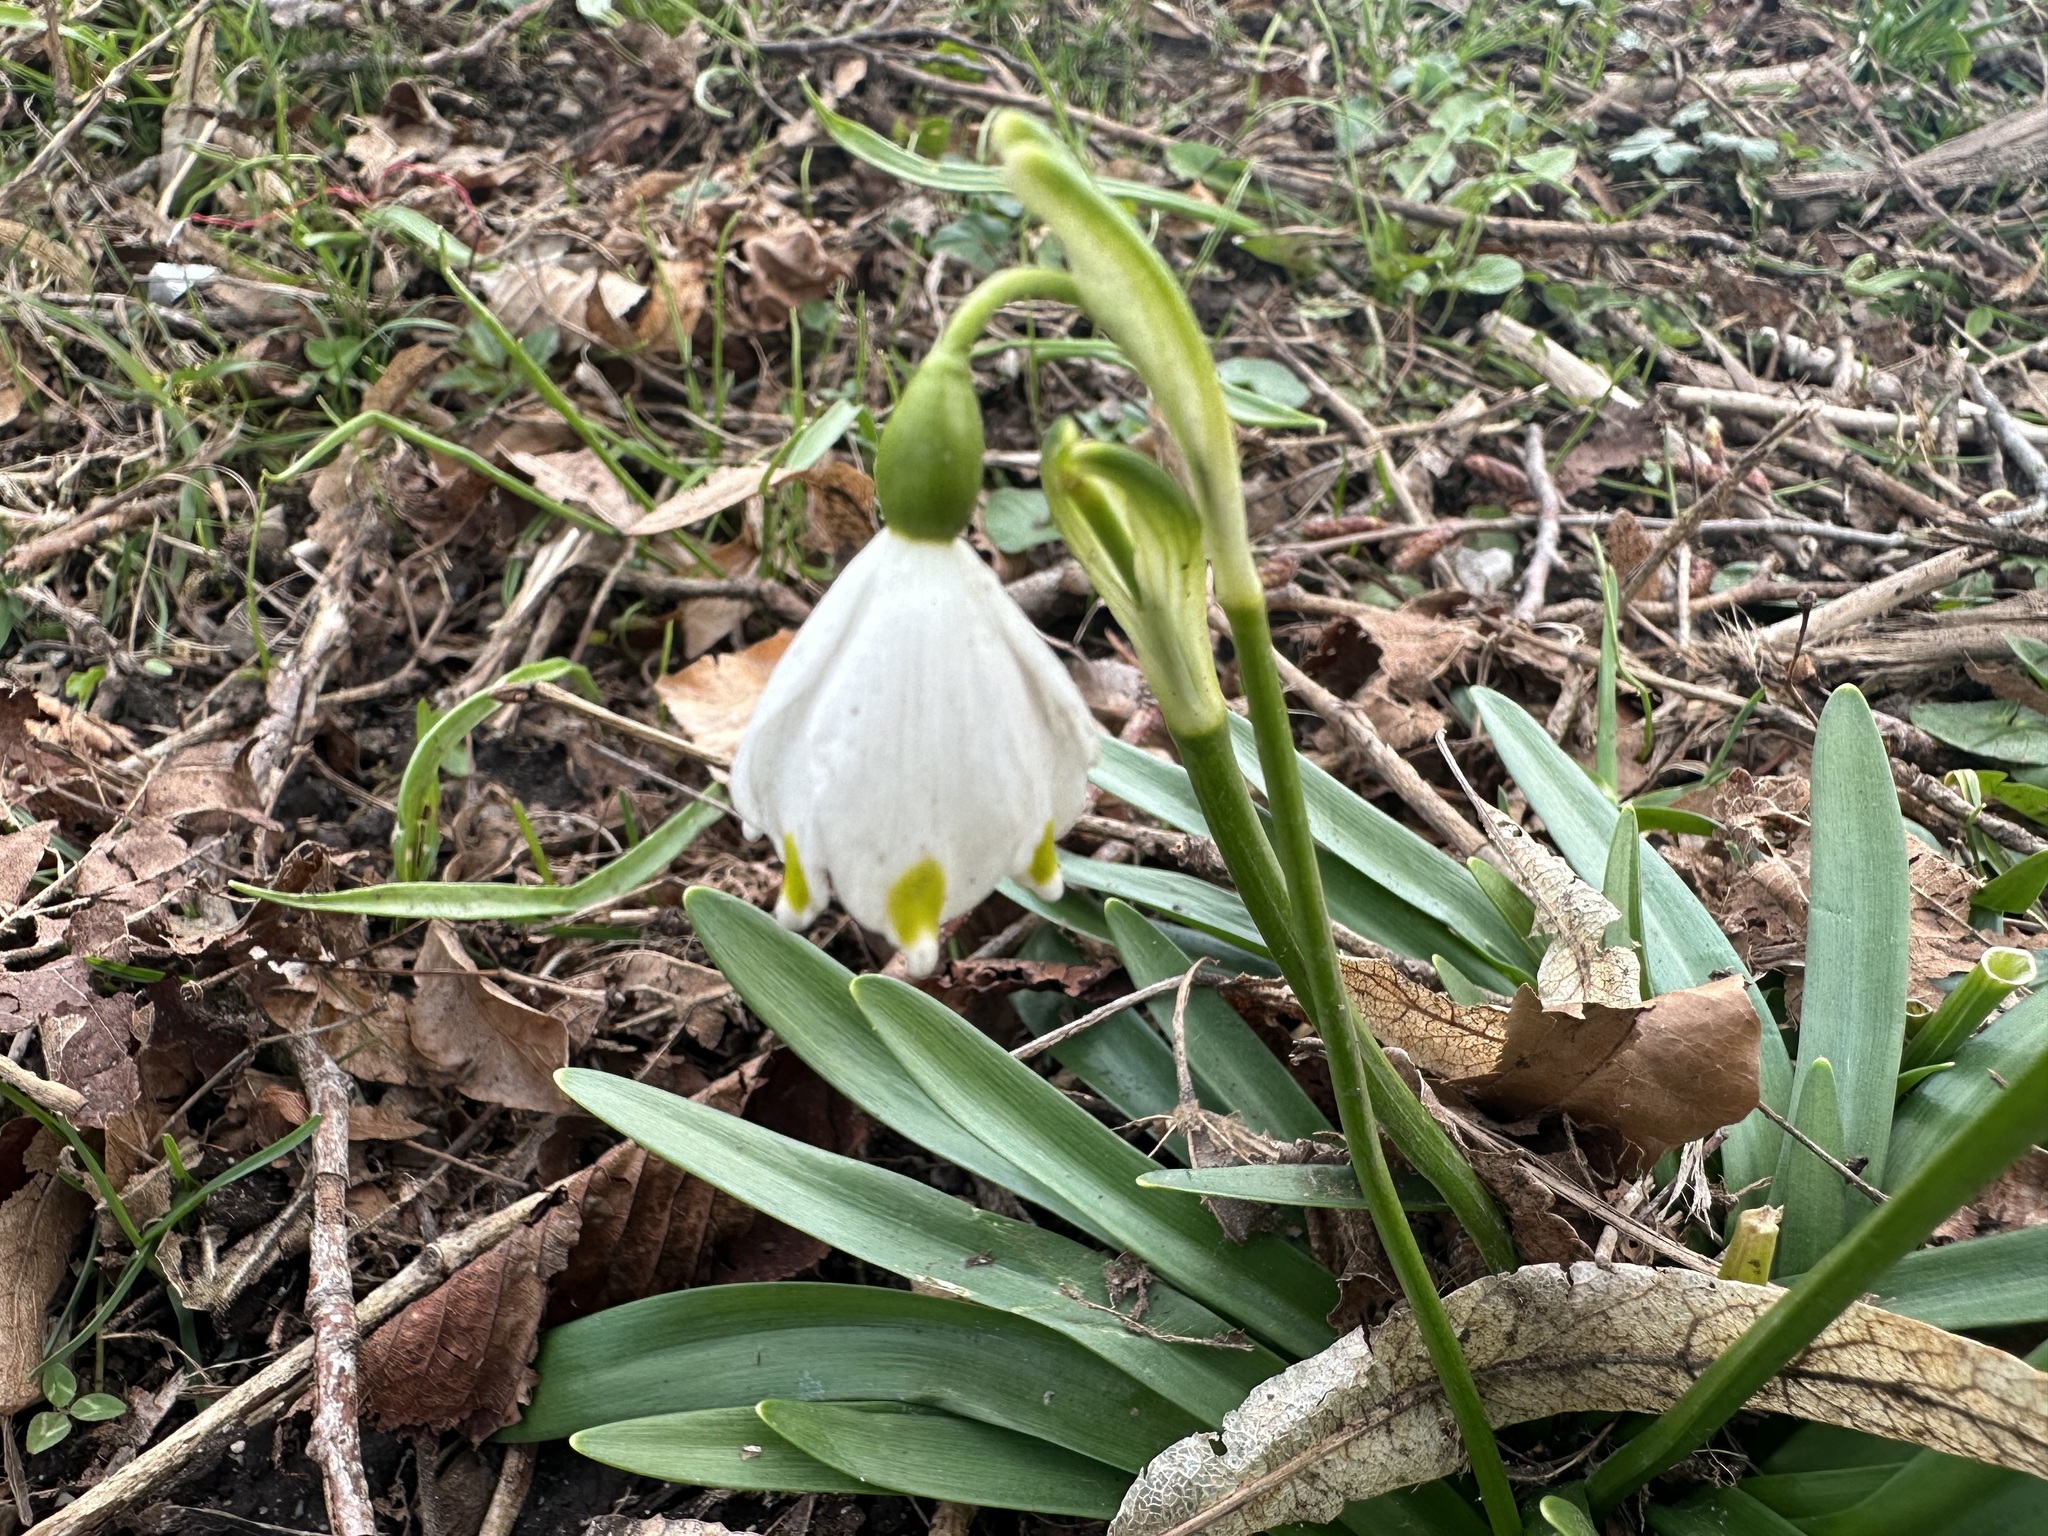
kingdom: Plantae
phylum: Tracheophyta
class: Liliopsida
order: Asparagales
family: Amaryllidaceae
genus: Leucojum
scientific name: Leucojum vernum
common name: Spring snowflake
